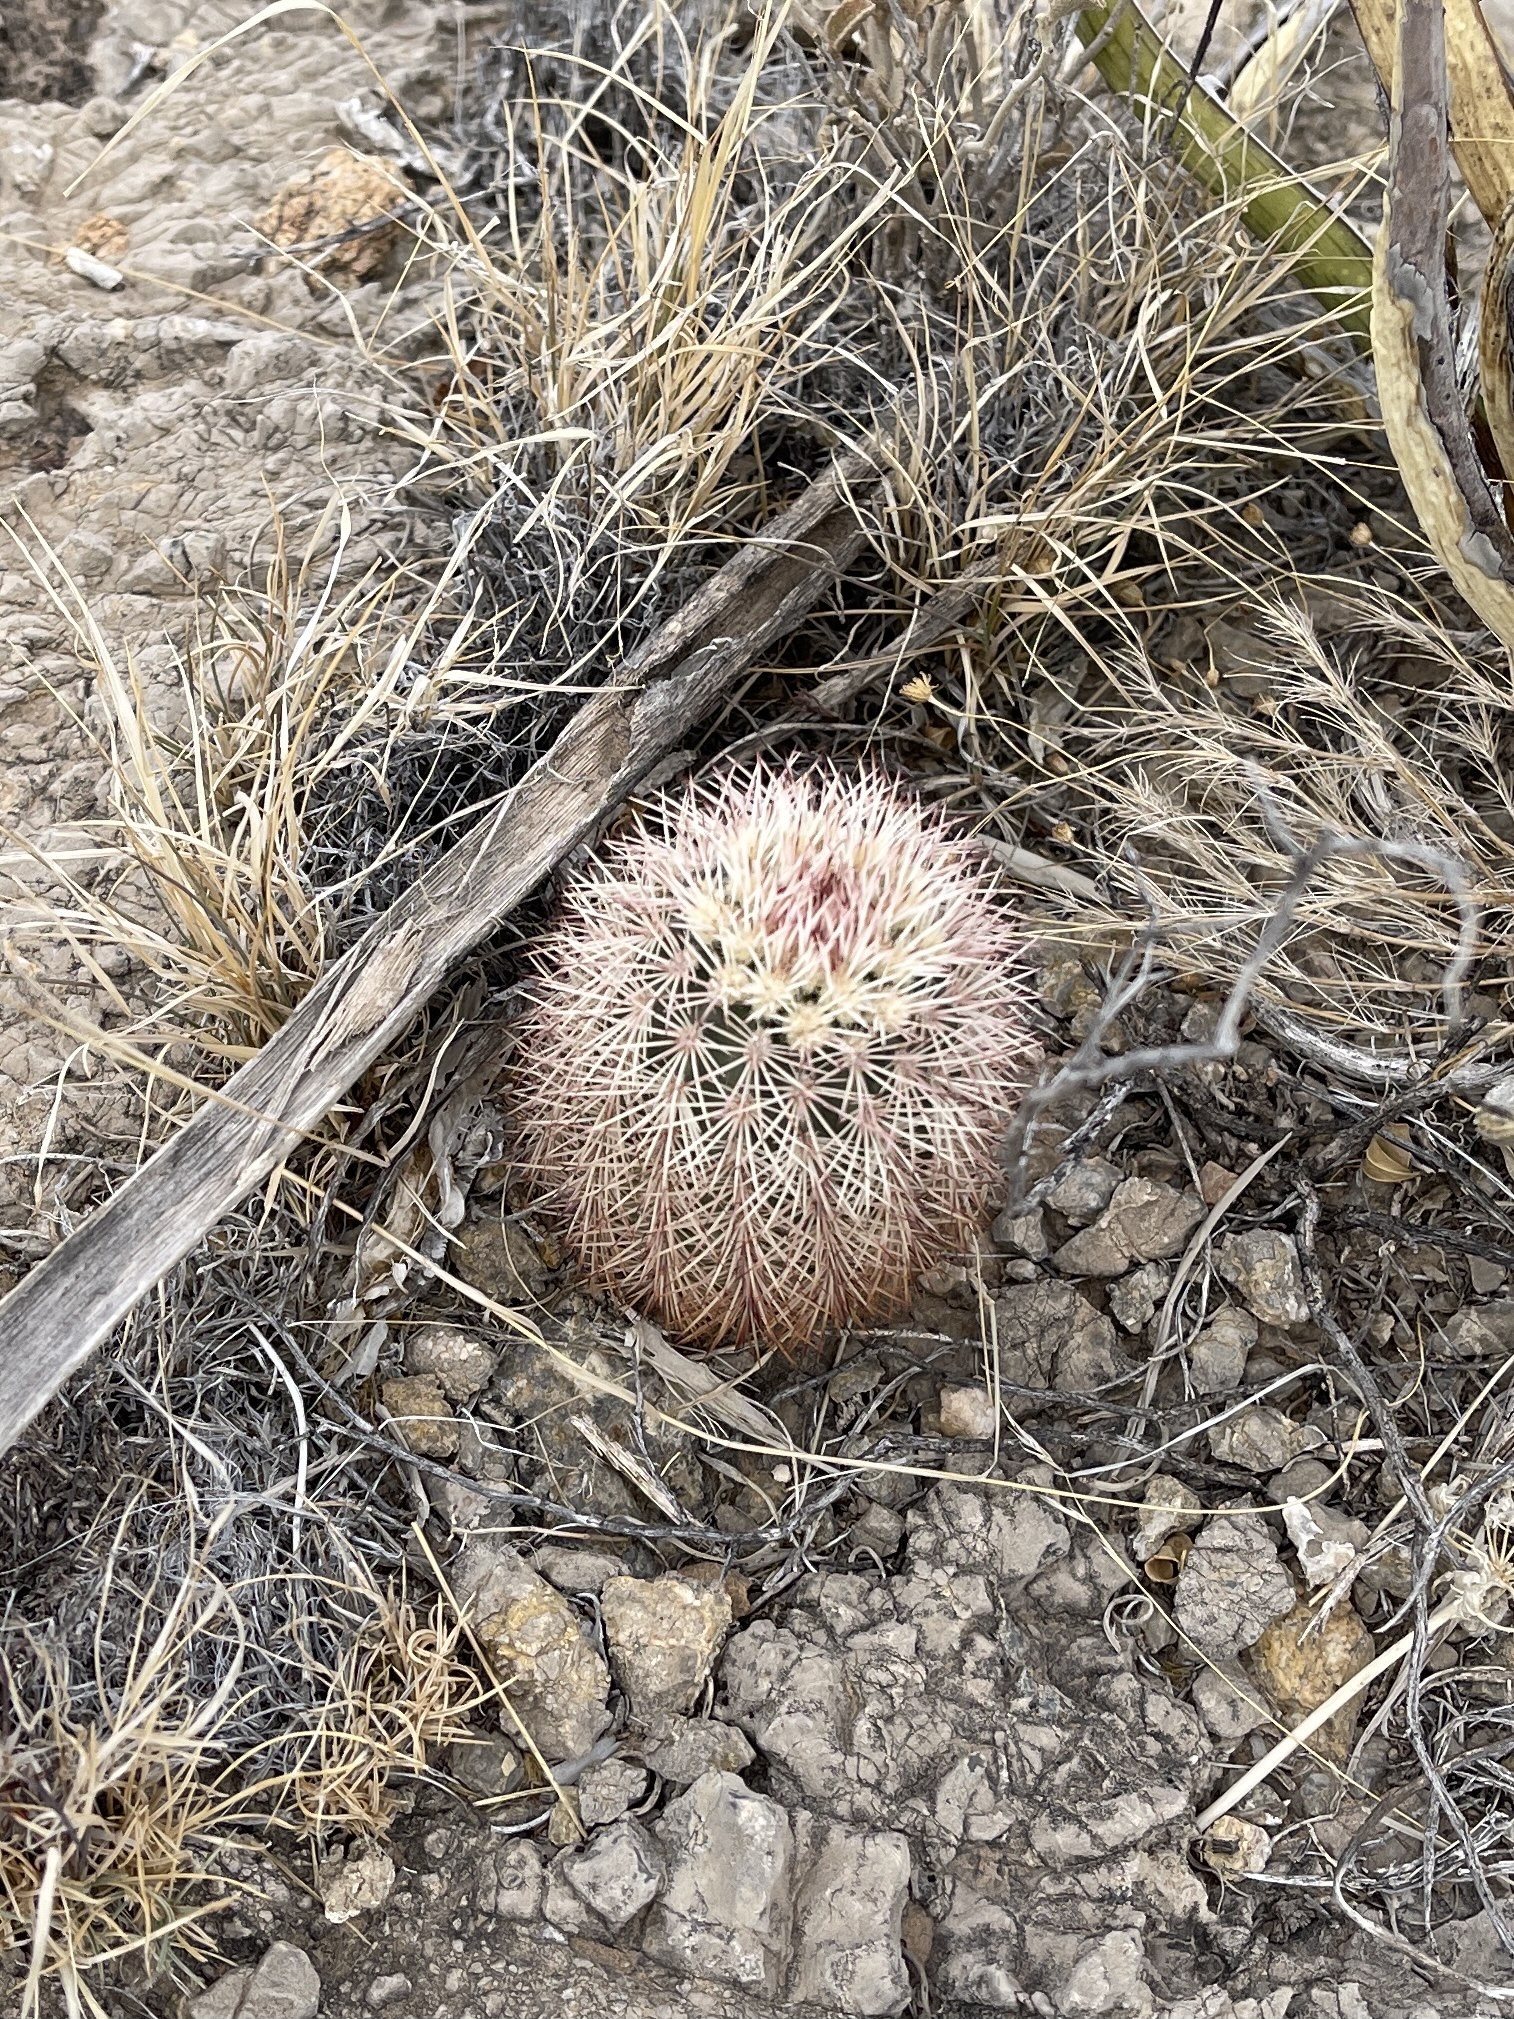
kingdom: Plantae
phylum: Tracheophyta
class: Magnoliopsida
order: Caryophyllales
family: Cactaceae
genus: Echinocereus
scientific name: Echinocereus dasyacanthus
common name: Spiny hedgehog cactus
